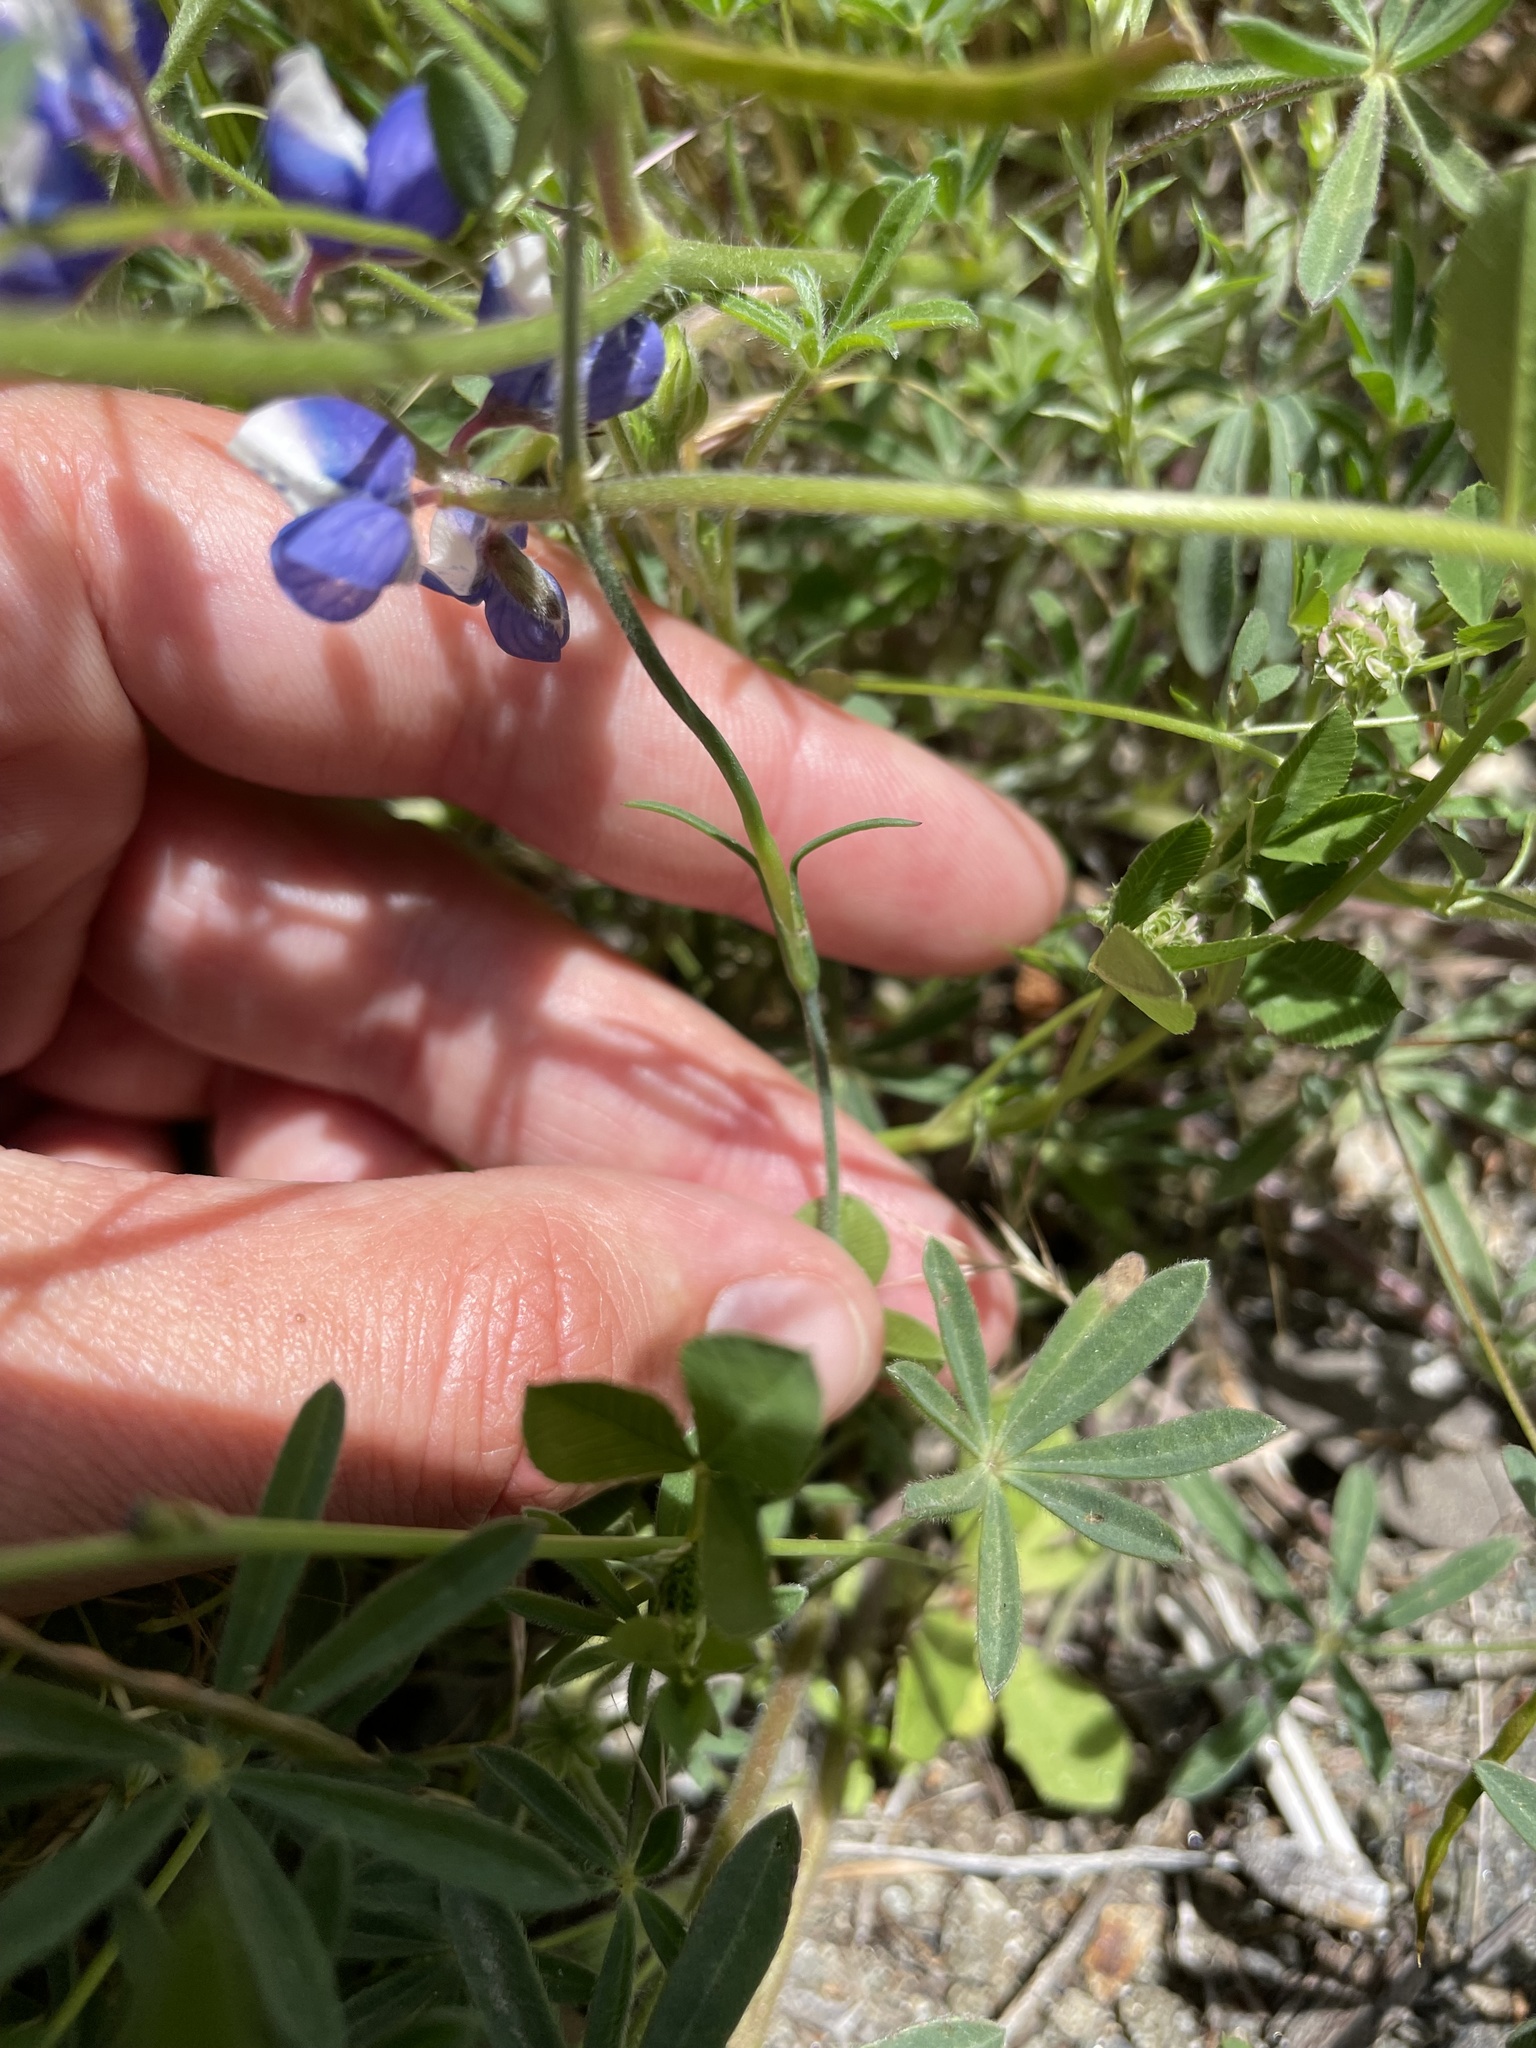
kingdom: Plantae
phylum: Tracheophyta
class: Magnoliopsida
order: Caryophyllales
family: Caryophyllaceae
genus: Petrorhagia
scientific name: Petrorhagia dubia
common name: Hairypink
